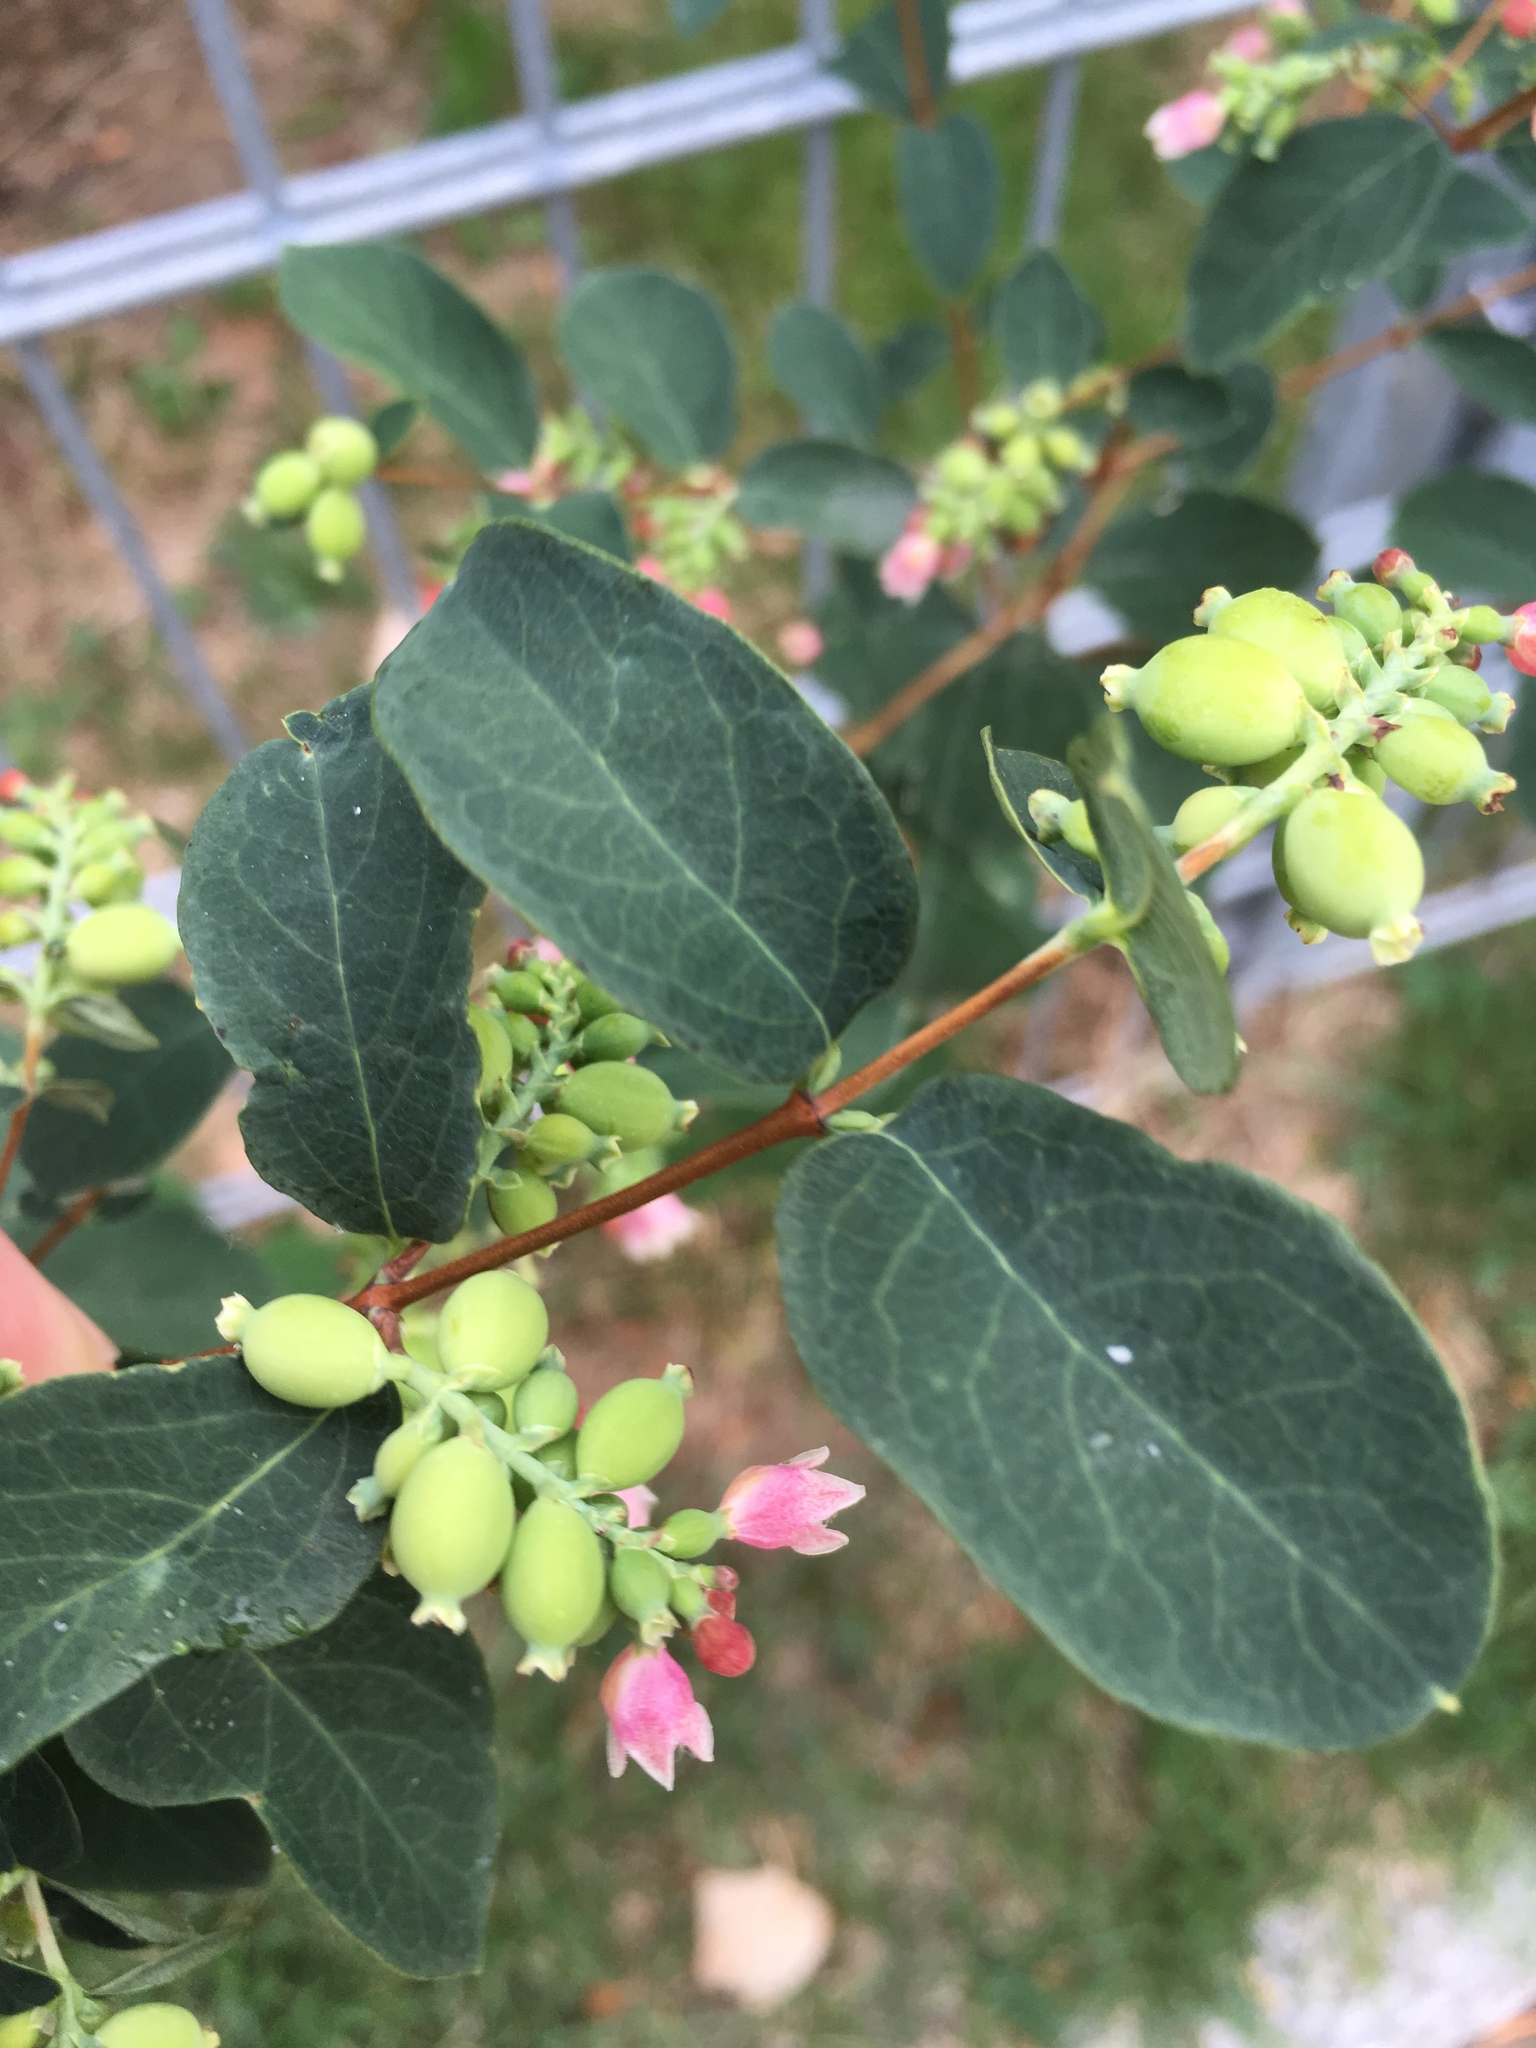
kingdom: Plantae
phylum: Tracheophyta
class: Magnoliopsida
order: Dipsacales
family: Caprifoliaceae
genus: Symphoricarpos
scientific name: Symphoricarpos albus
